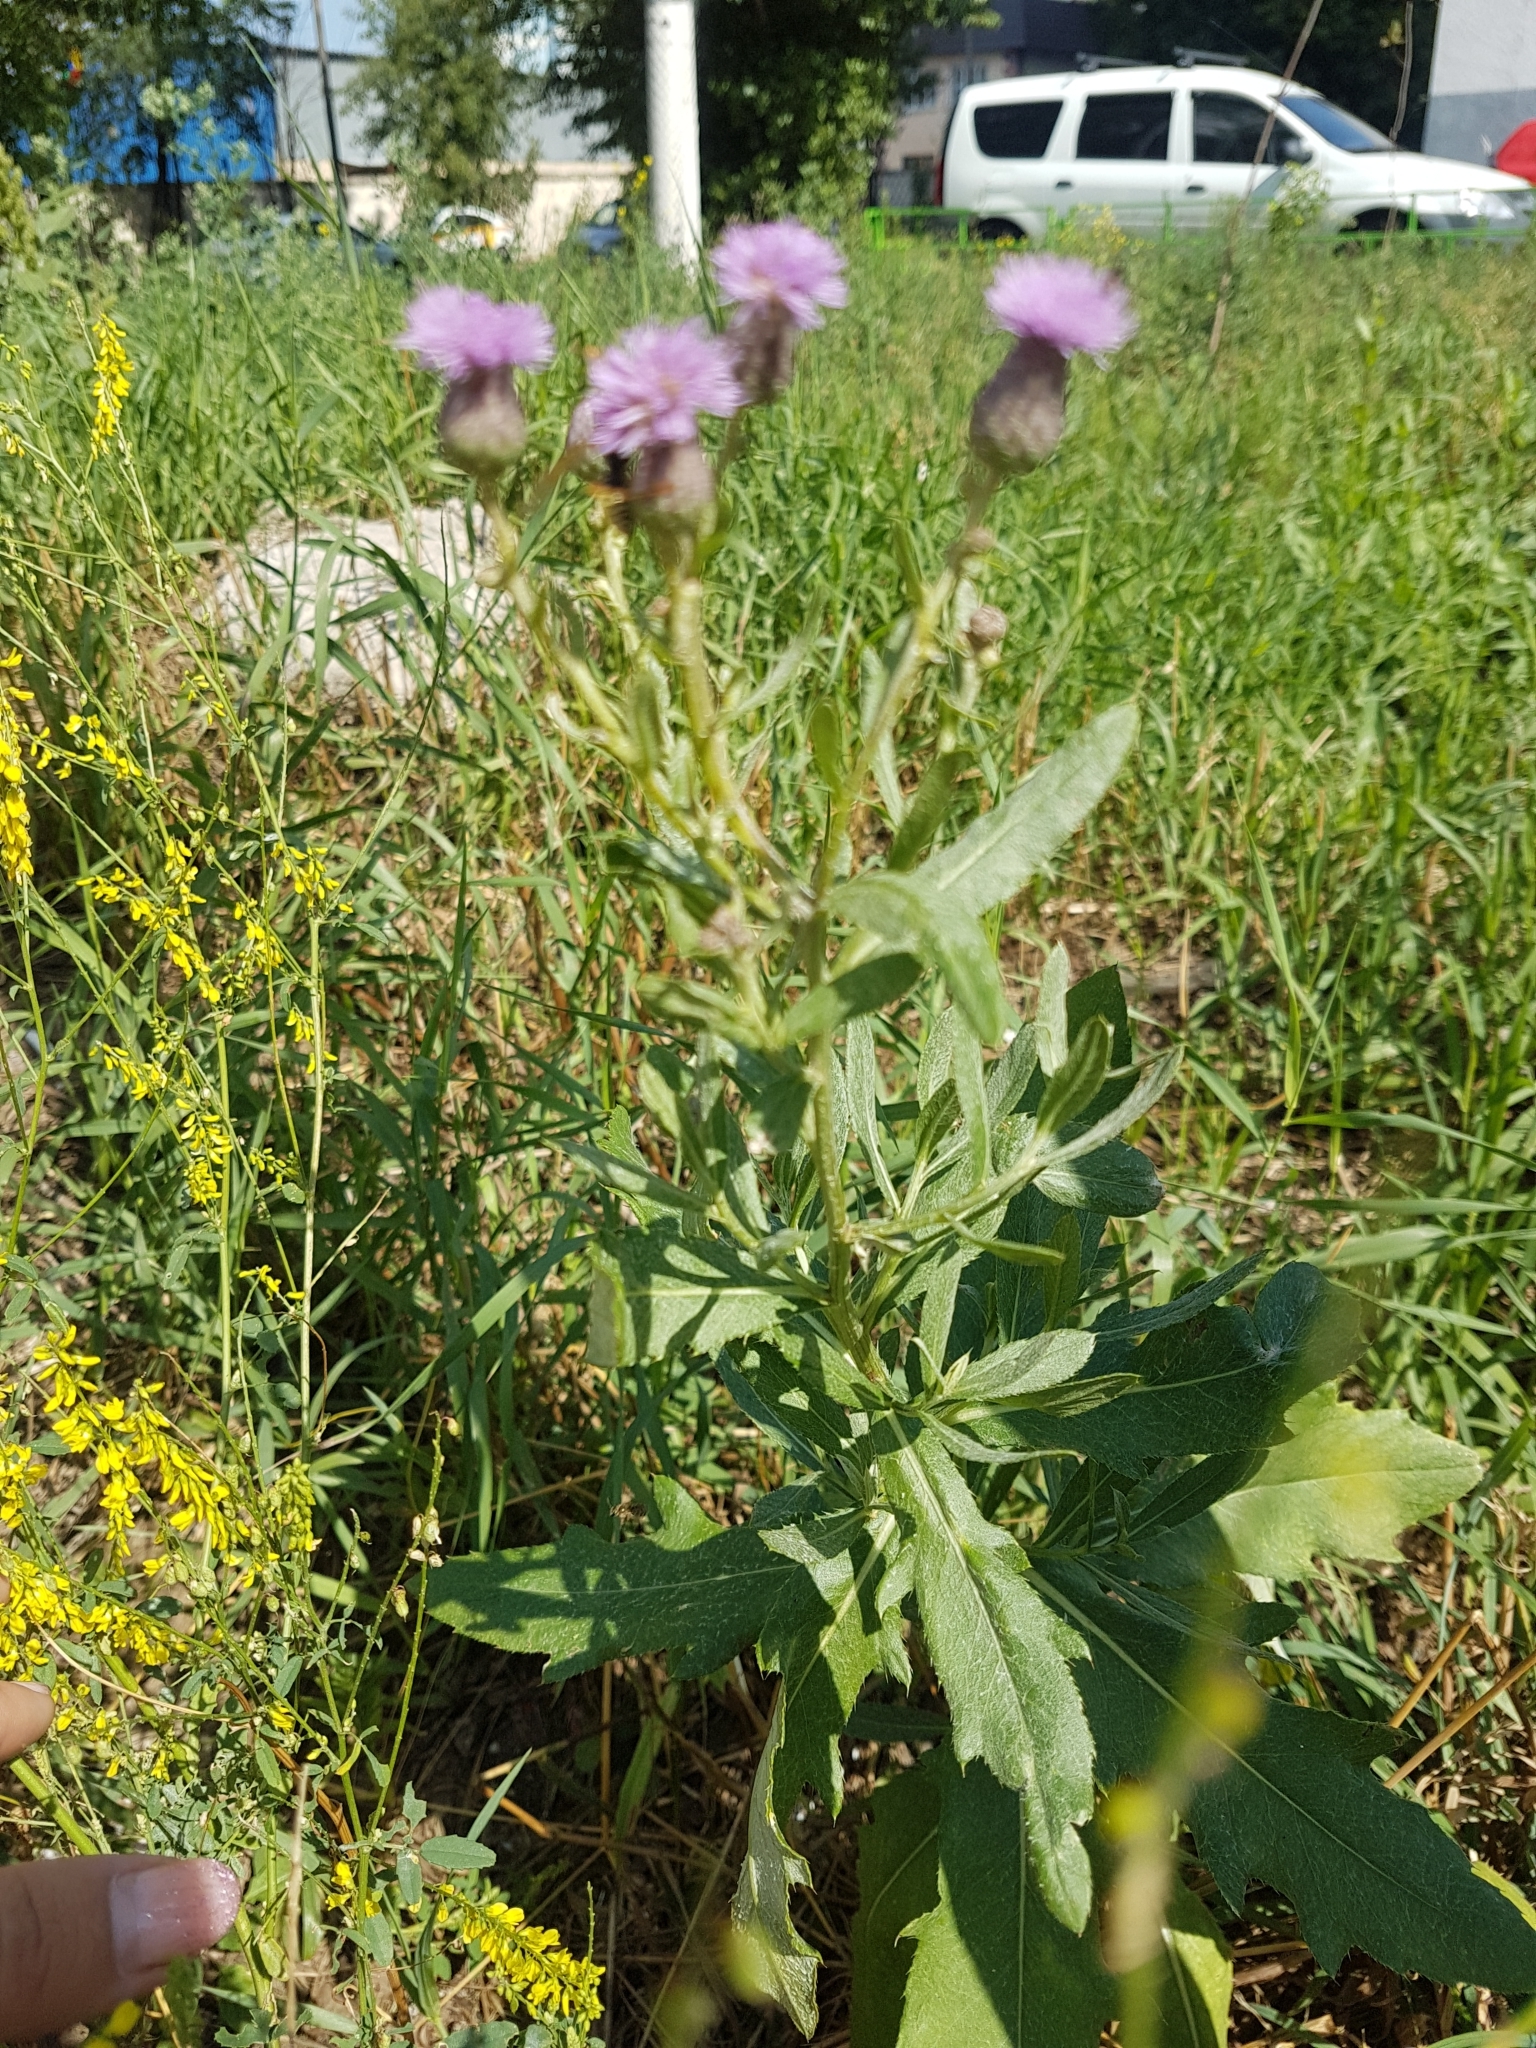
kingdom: Plantae
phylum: Tracheophyta
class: Magnoliopsida
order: Asterales
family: Asteraceae
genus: Cirsium
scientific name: Cirsium arvense
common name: Creeping thistle
